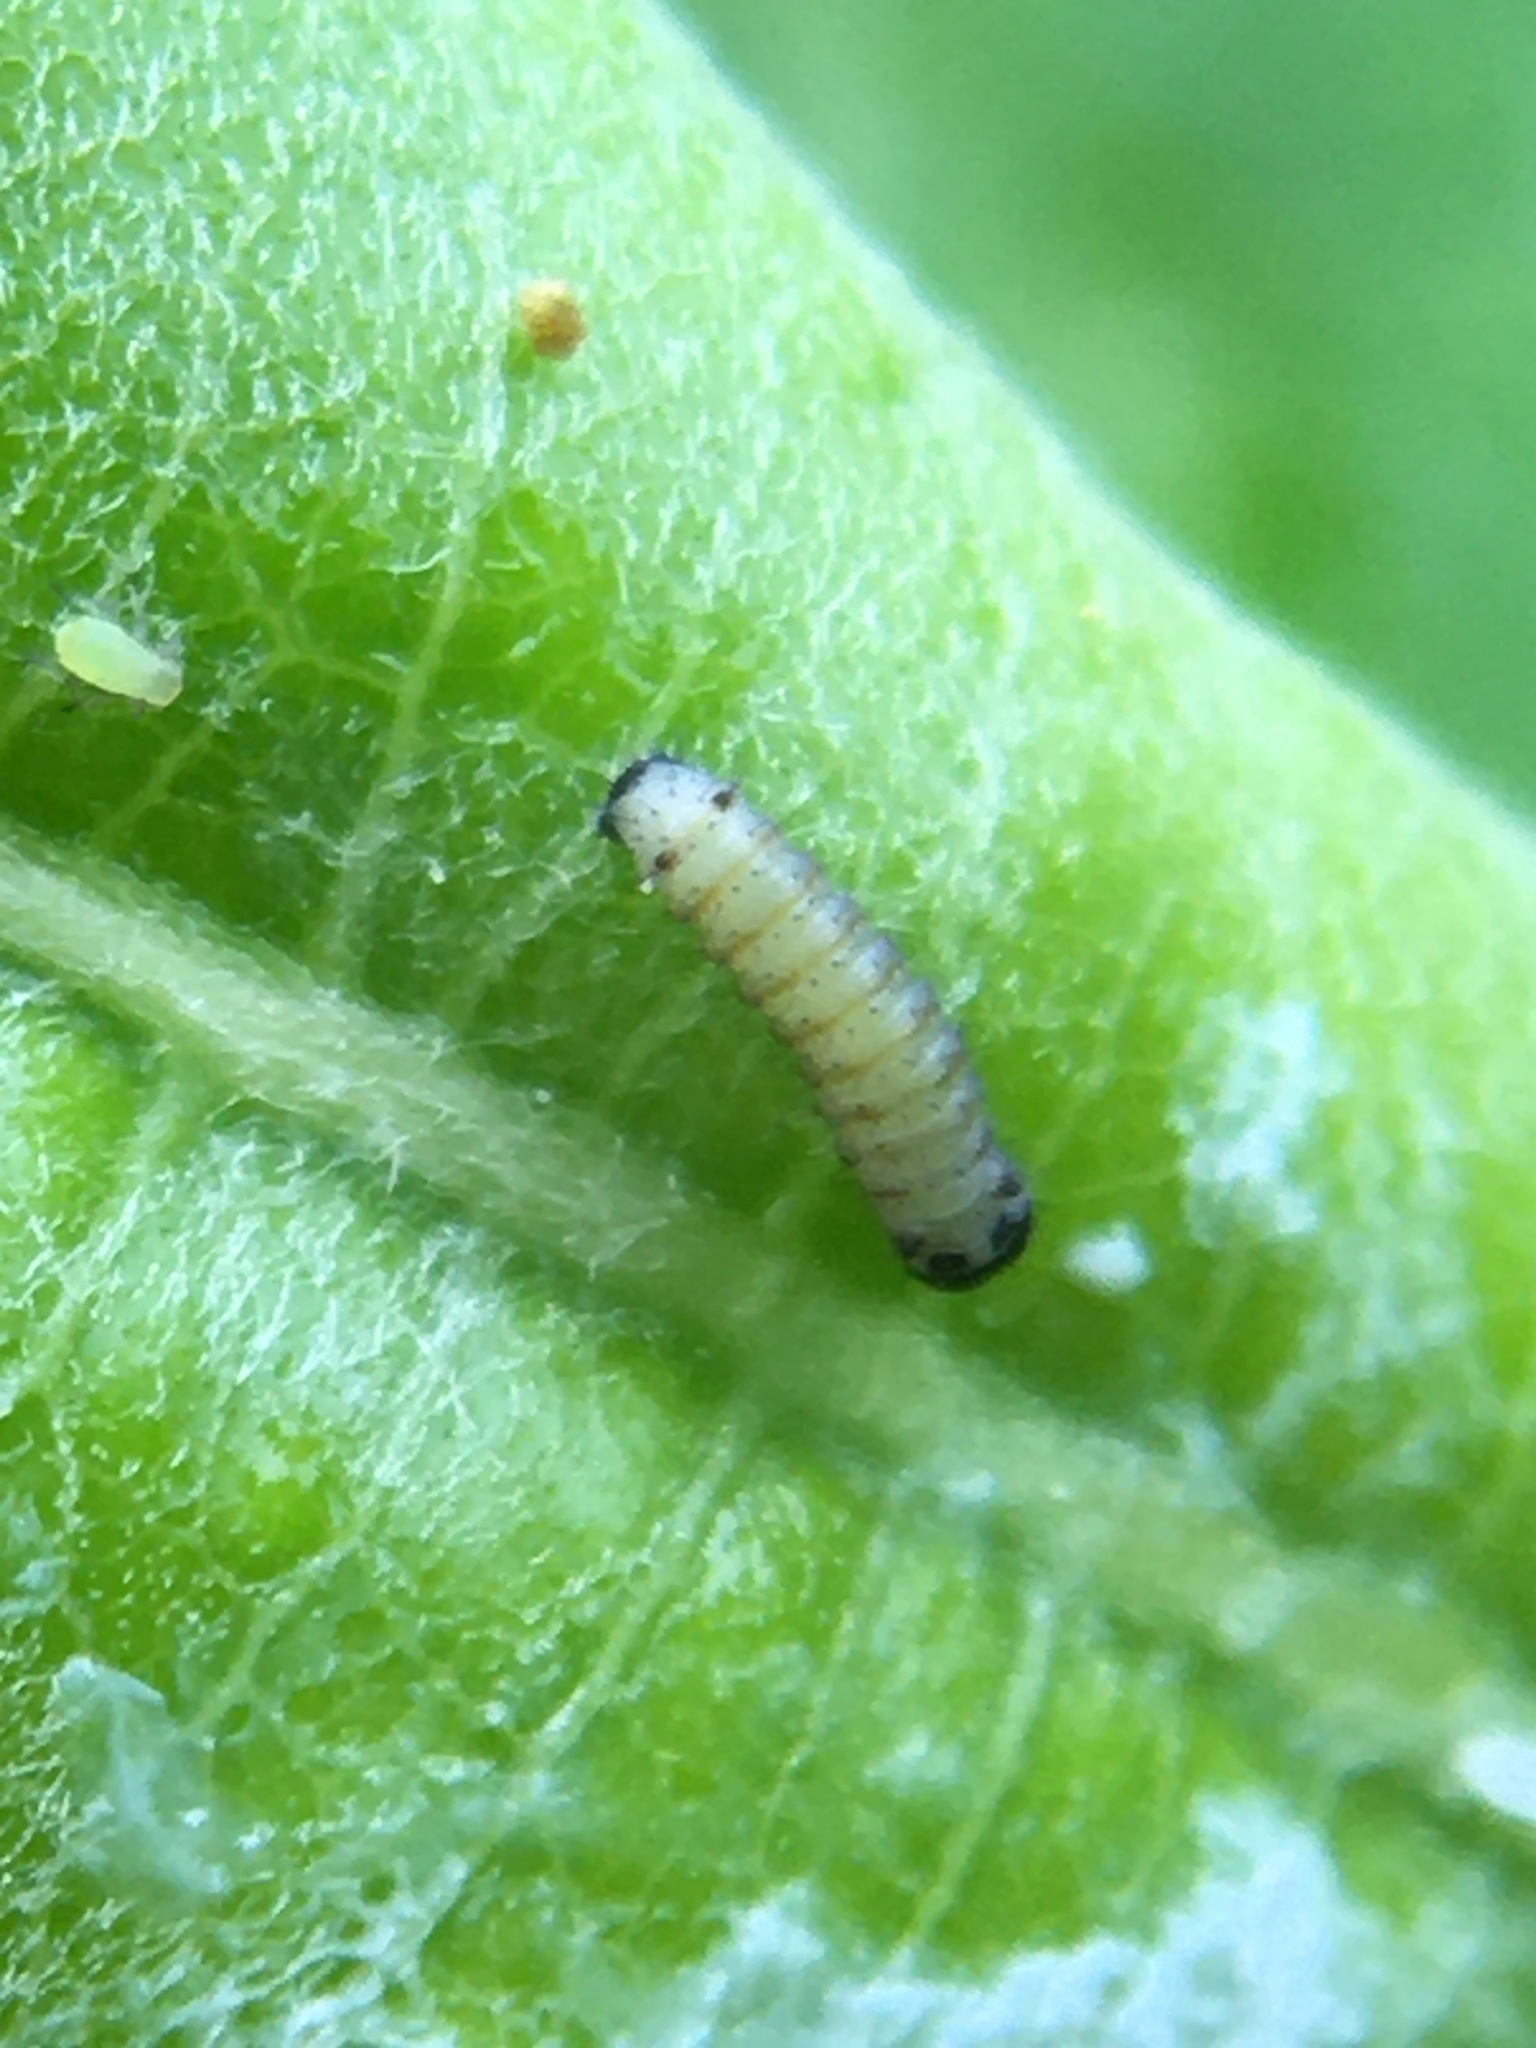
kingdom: Animalia
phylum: Arthropoda
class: Insecta
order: Lepidoptera
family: Nymphalidae
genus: Danaus
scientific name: Danaus plexippus
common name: Monarch
